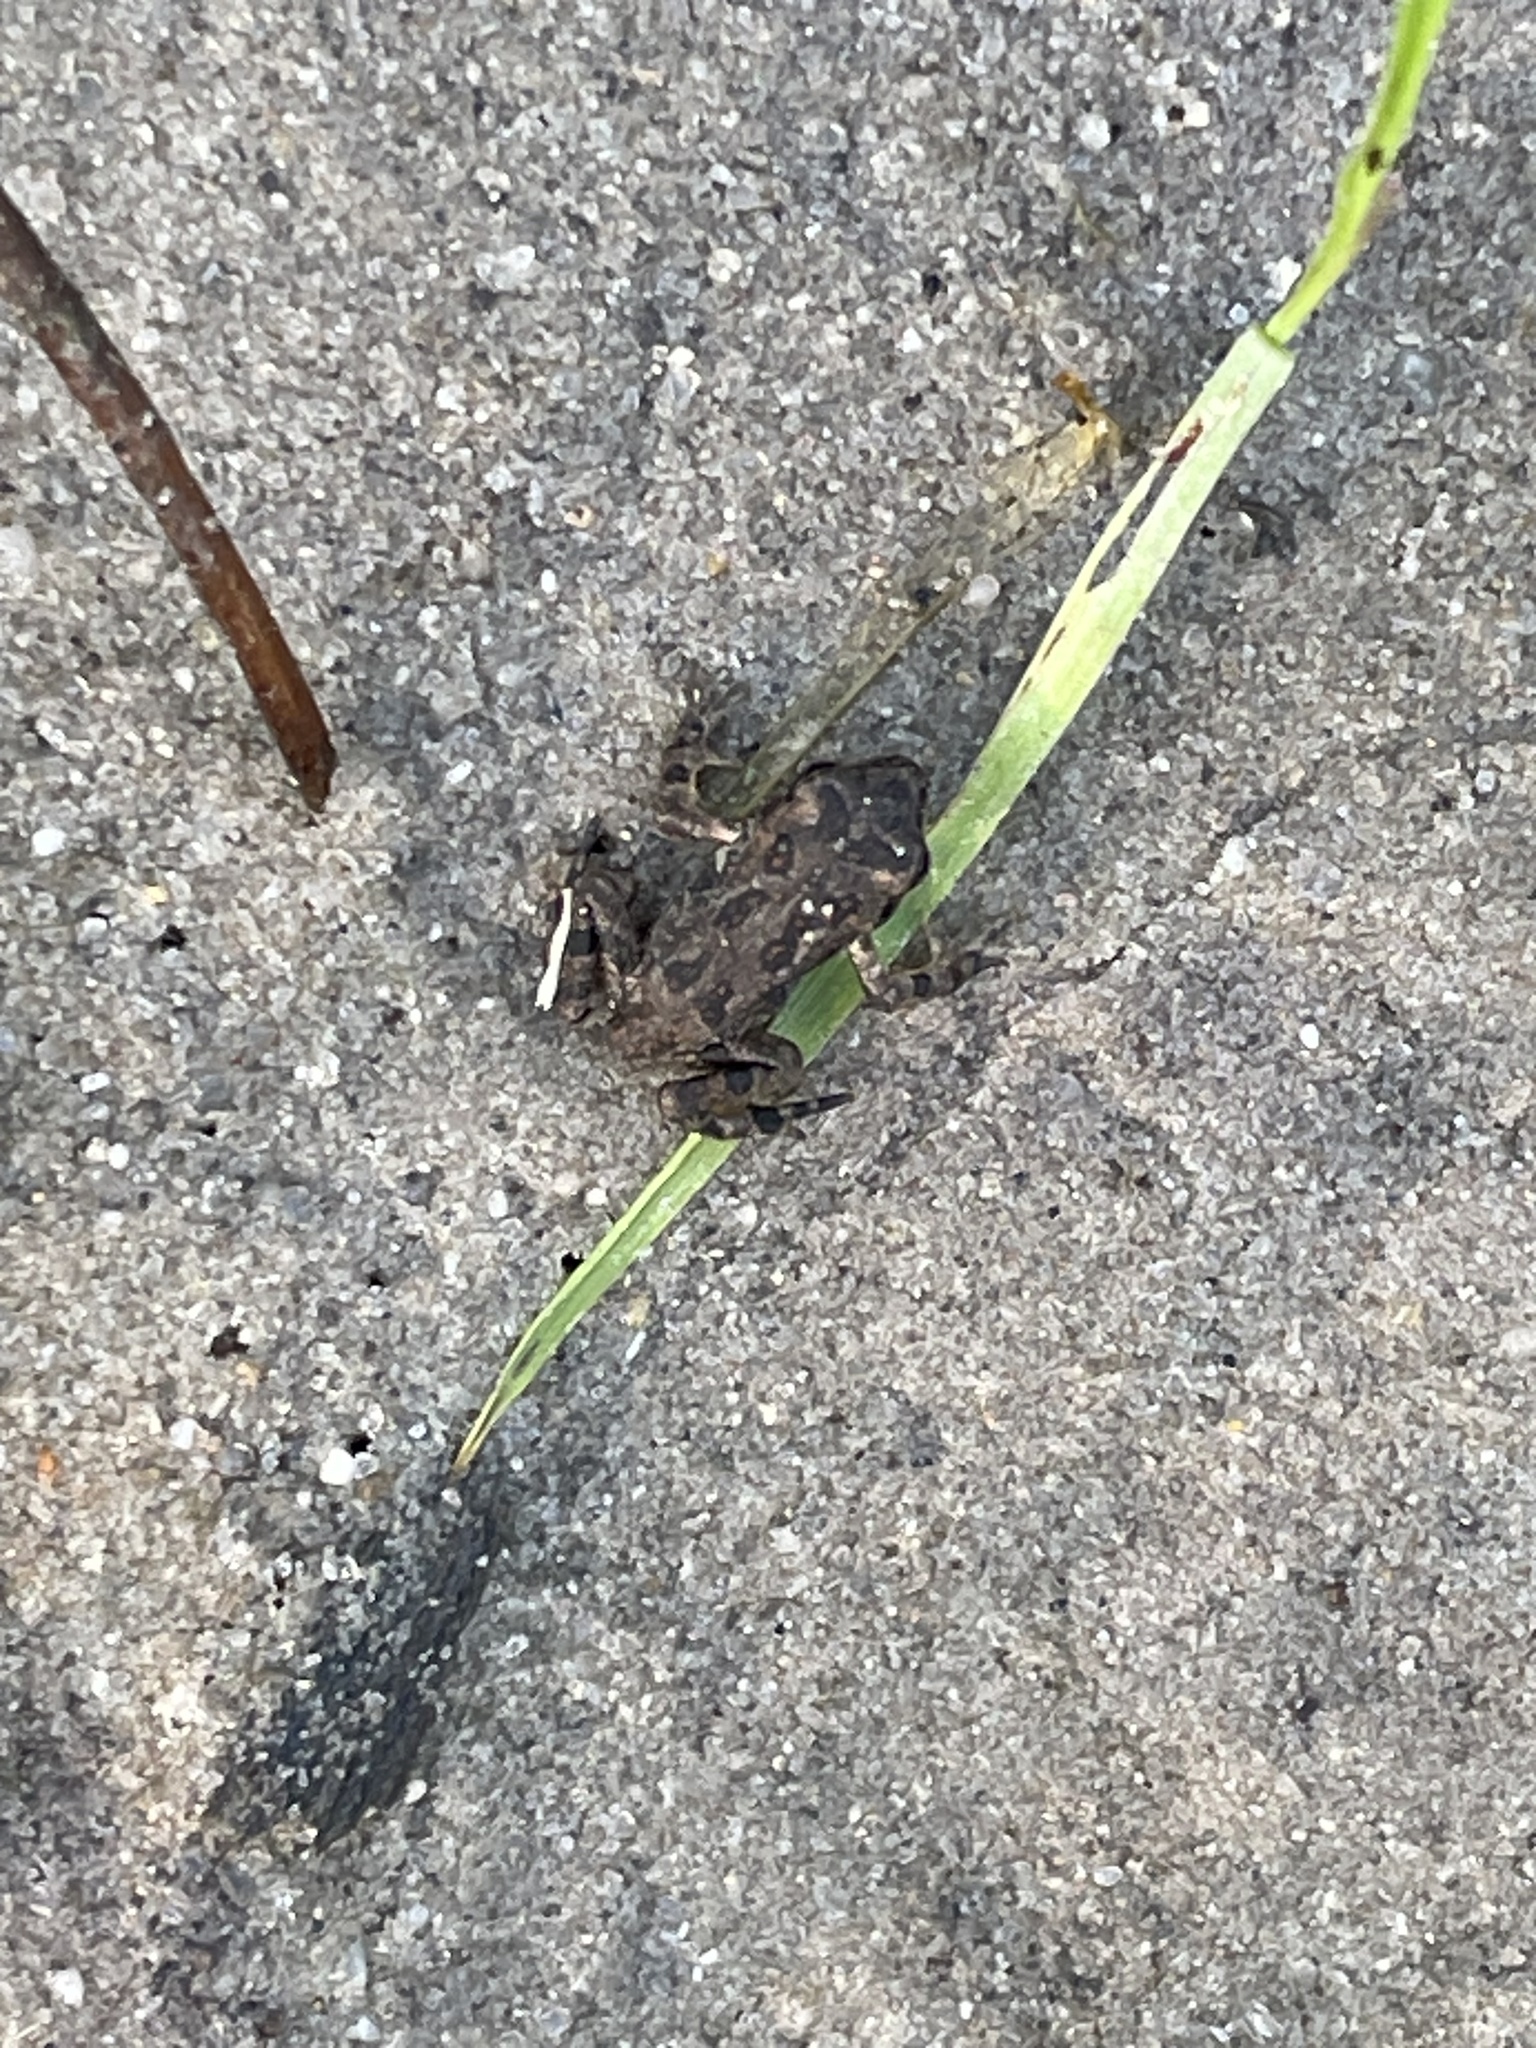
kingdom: Animalia
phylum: Chordata
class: Amphibia
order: Anura
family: Bufonidae
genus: Anaxyrus
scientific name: Anaxyrus fowleri
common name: Fowler's toad
